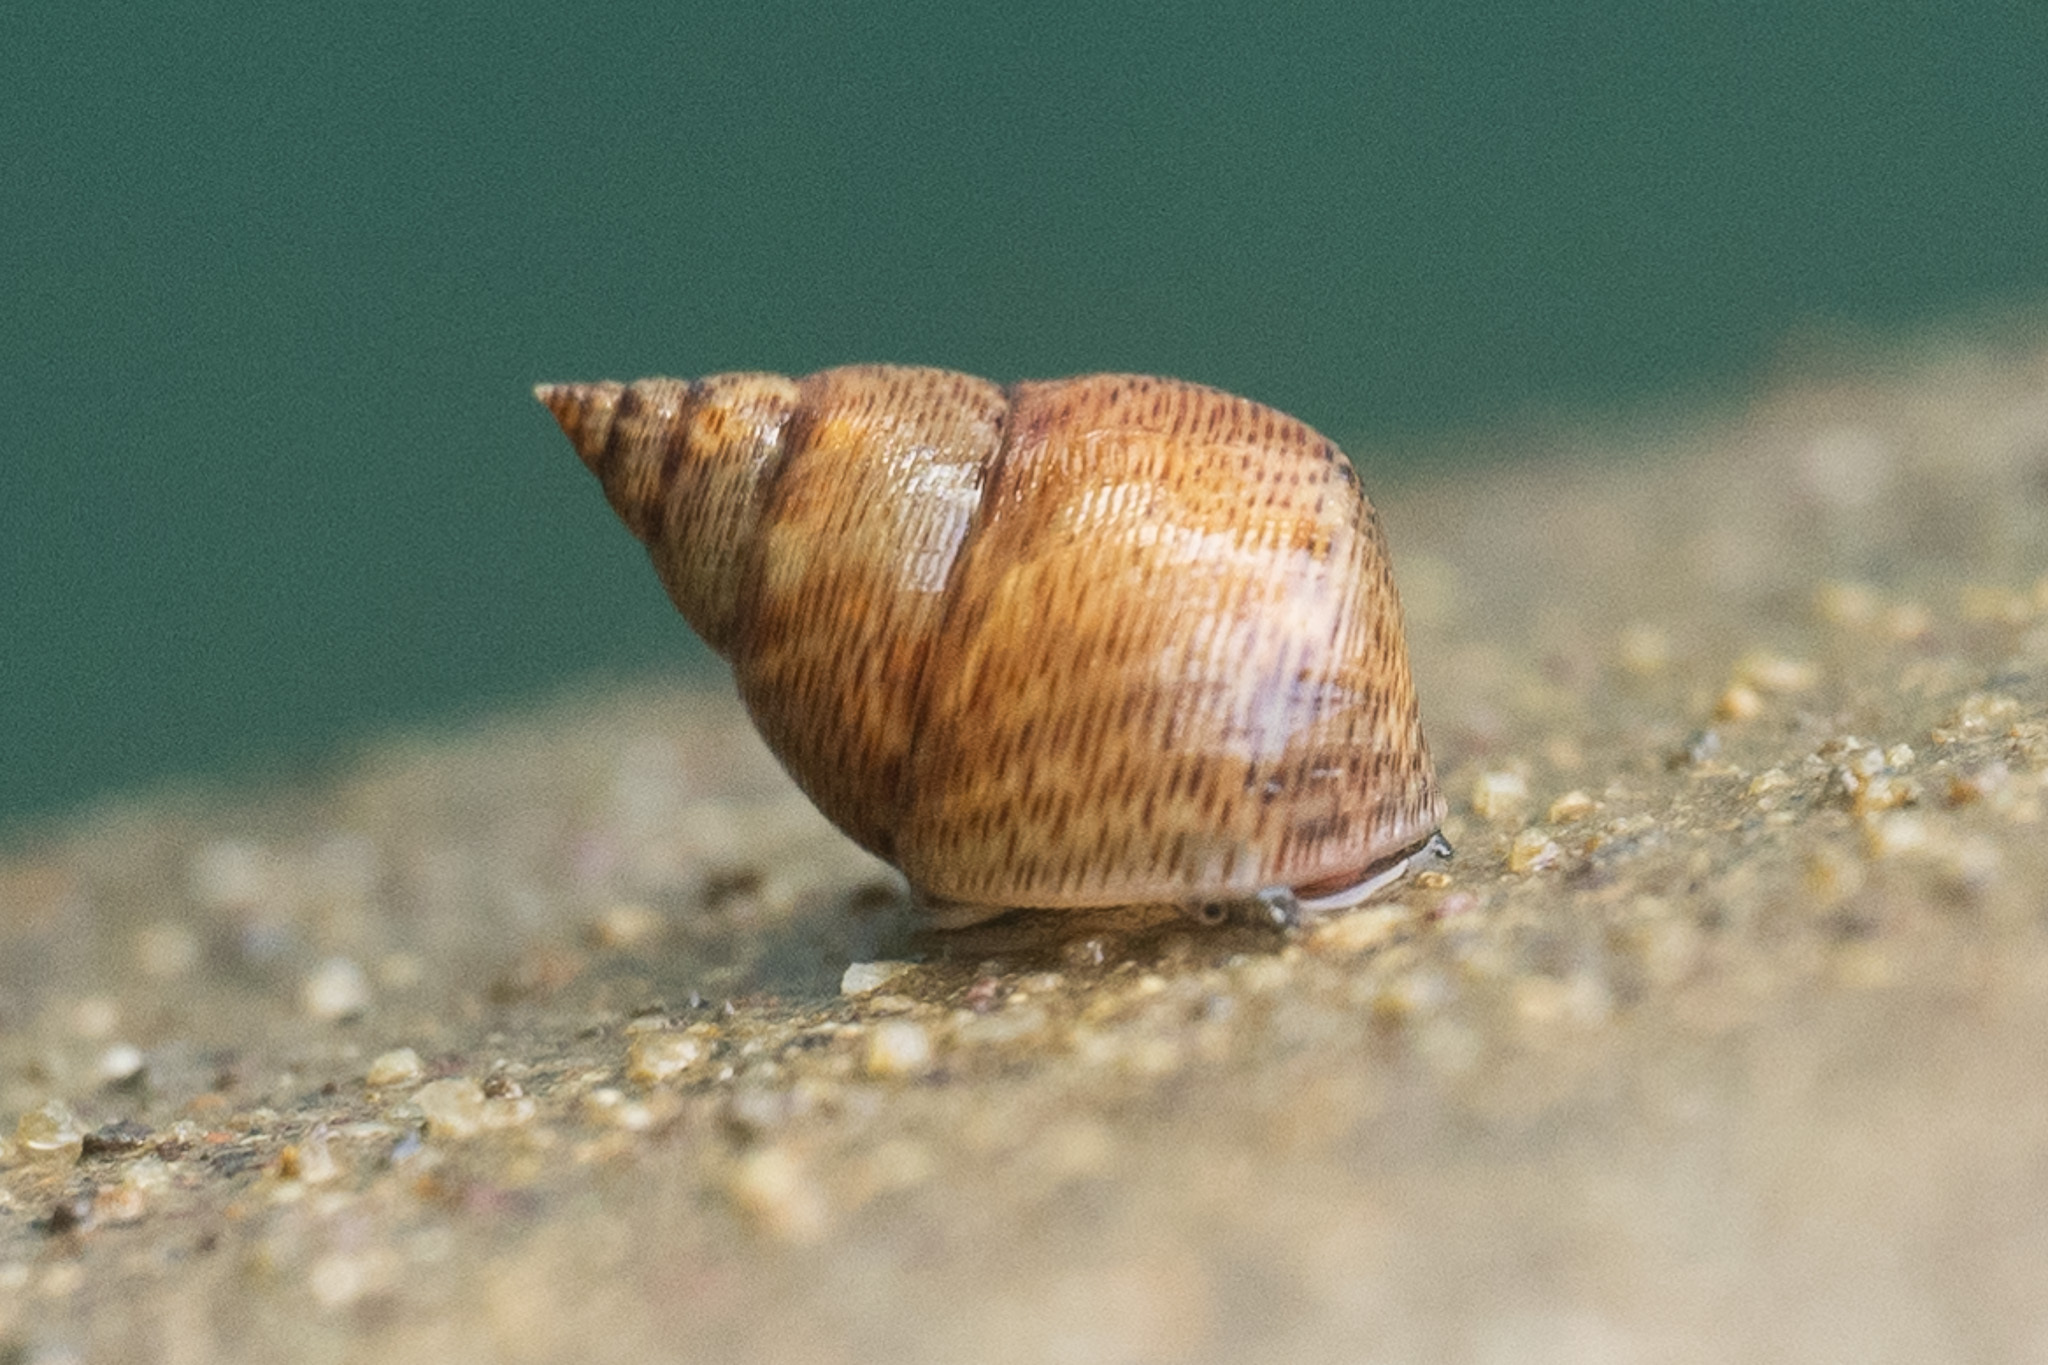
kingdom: Animalia
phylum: Mollusca
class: Gastropoda
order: Littorinimorpha
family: Littorinidae
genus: Littoraria
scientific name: Littoraria angulifera
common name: Mangrove periwinkle
